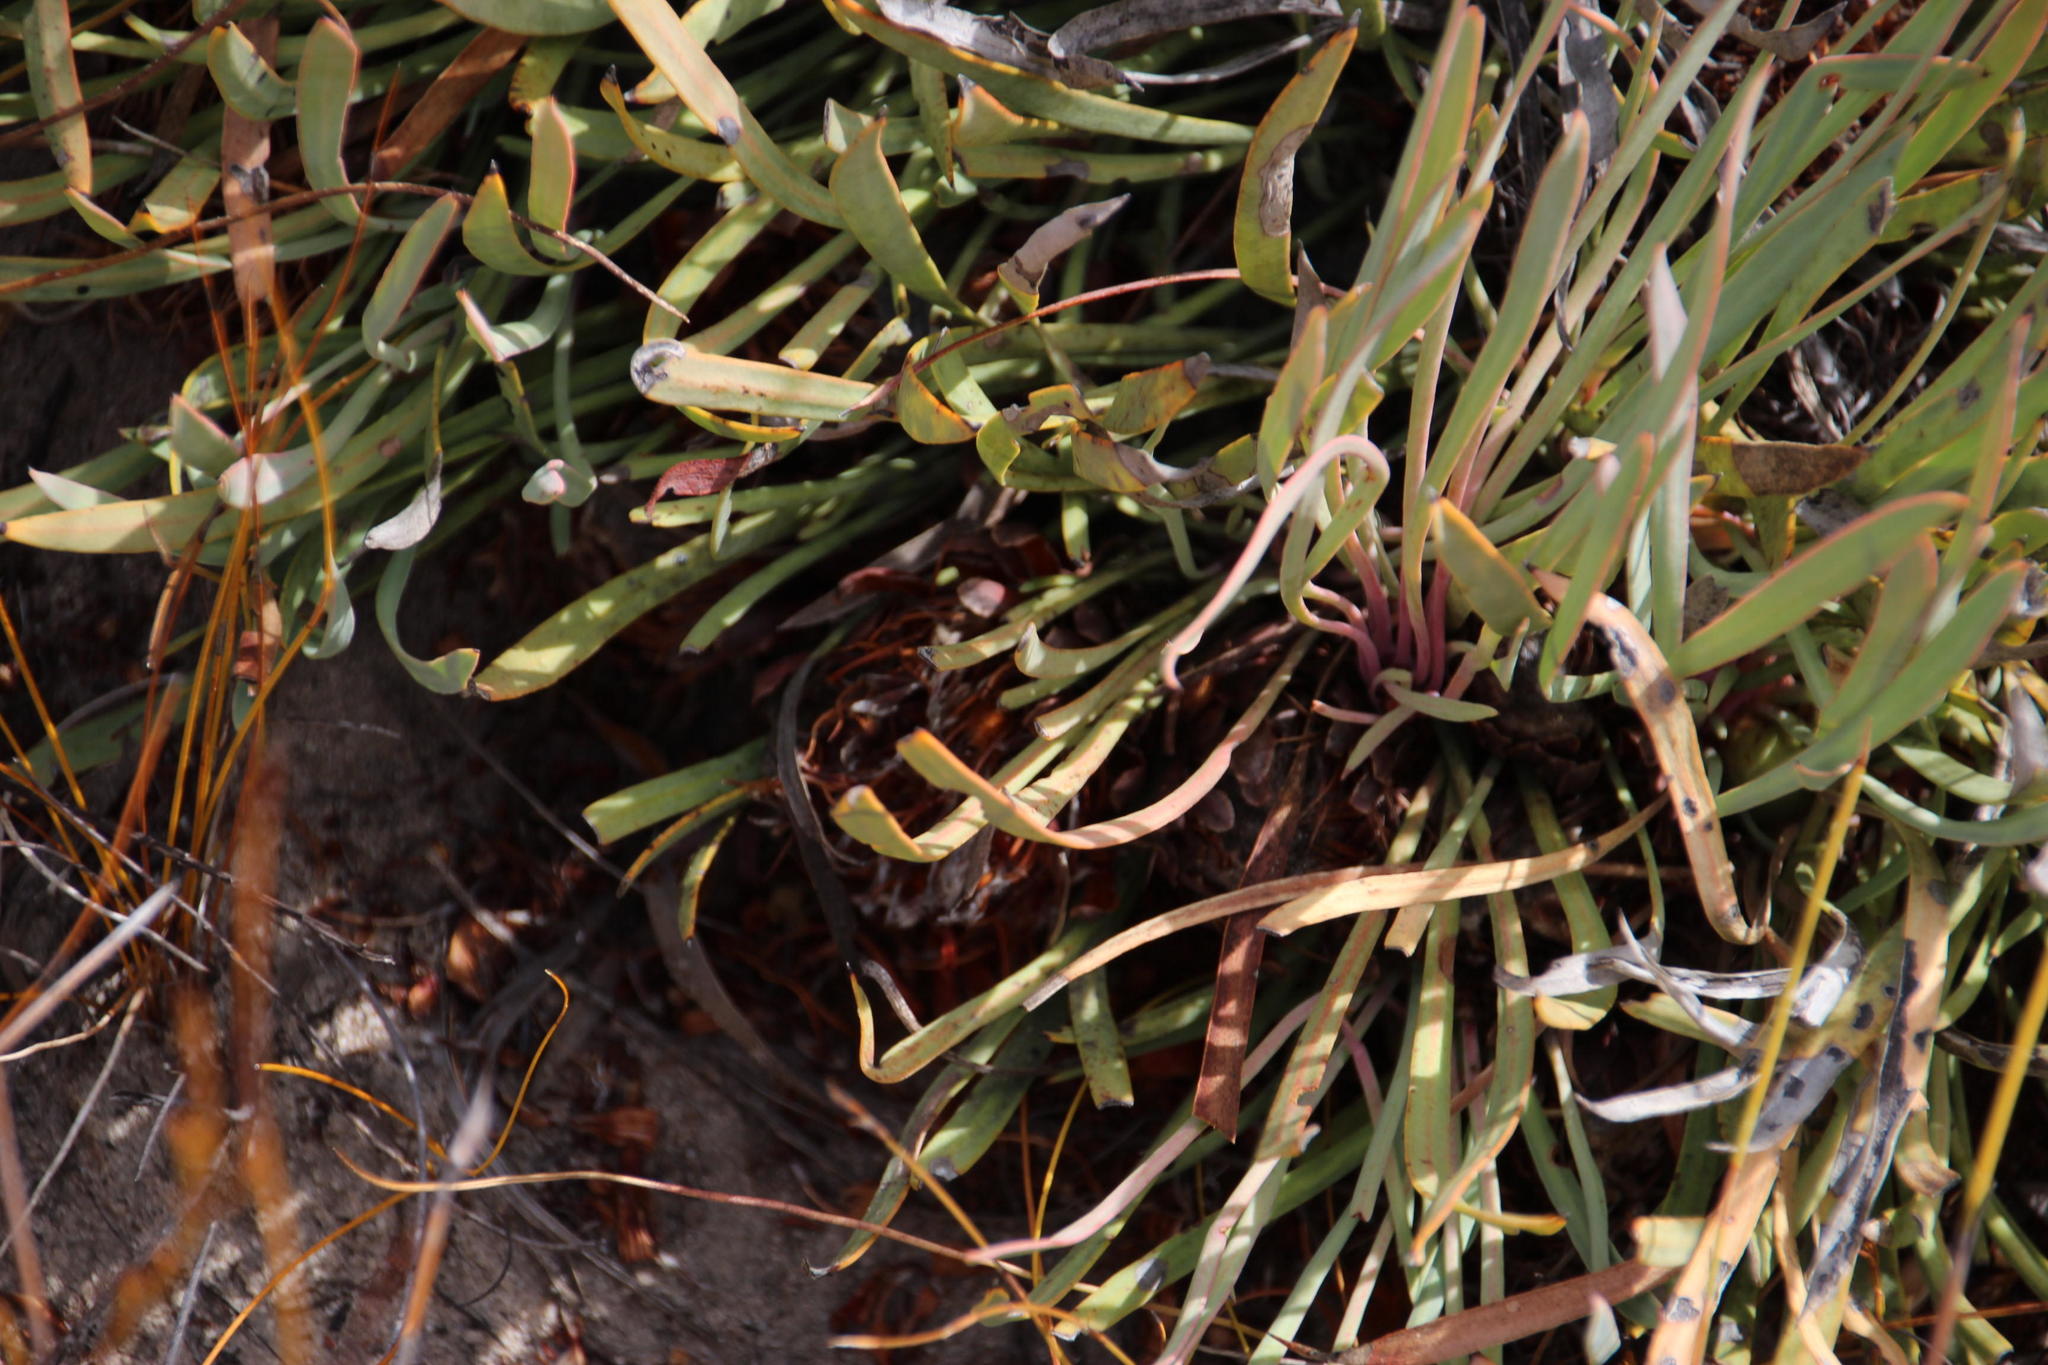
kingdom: Plantae
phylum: Tracheophyta
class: Magnoliopsida
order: Proteales
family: Proteaceae
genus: Protea
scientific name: Protea laevis
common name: Smooth-leaf sugarbush
